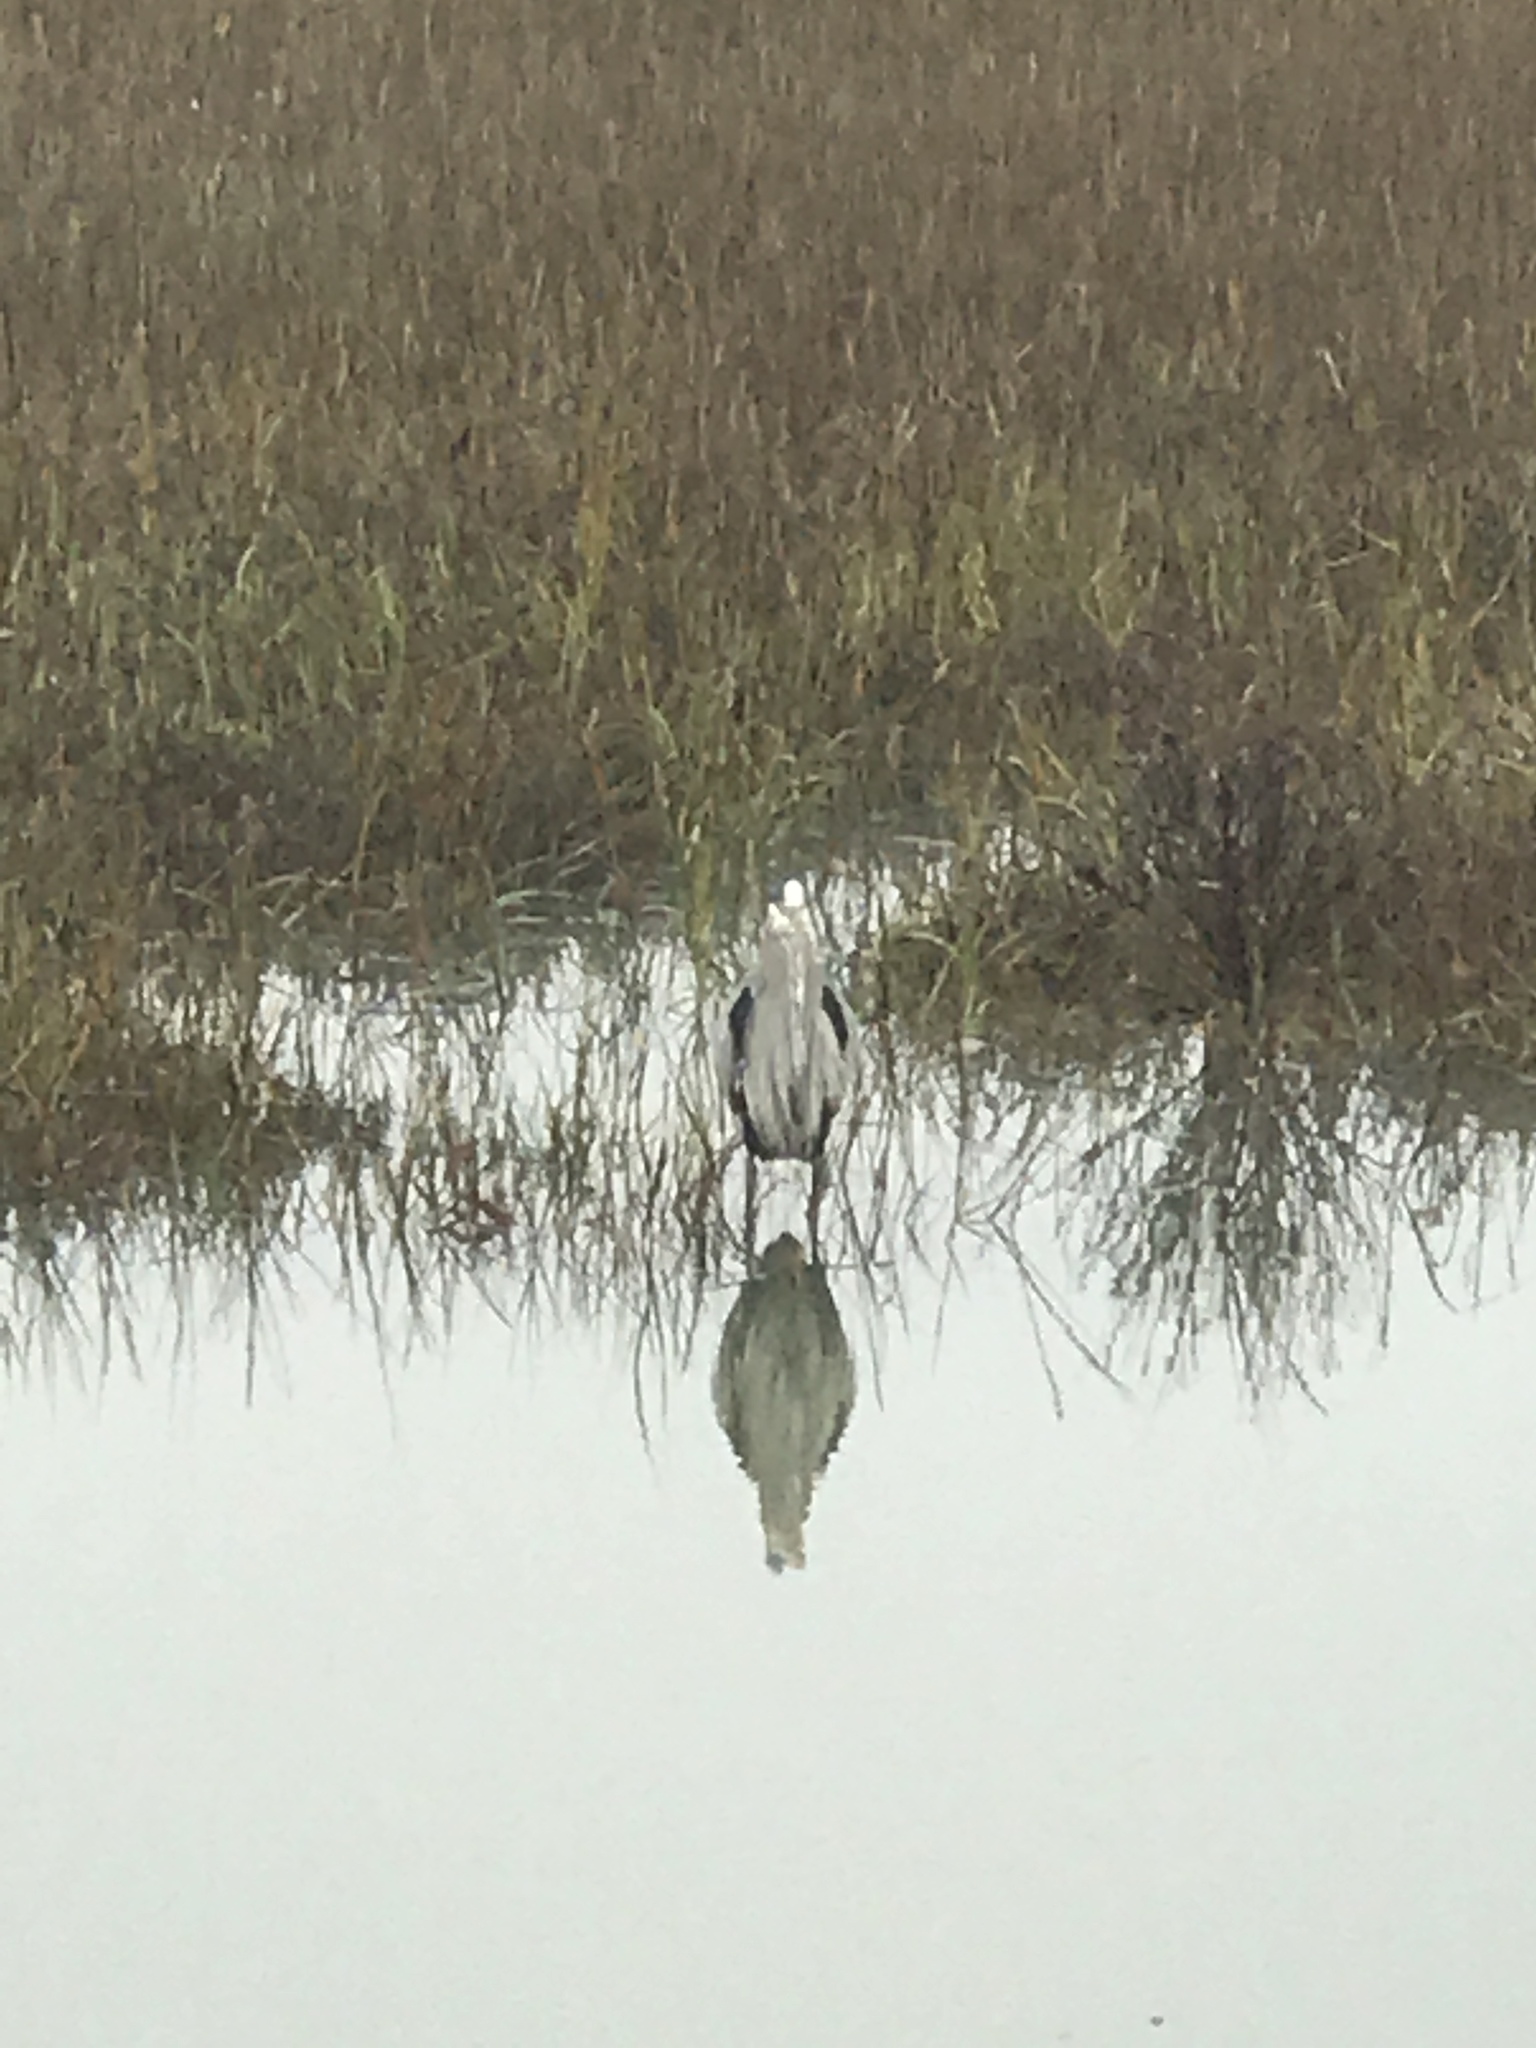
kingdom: Animalia
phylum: Chordata
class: Aves
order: Pelecaniformes
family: Ardeidae
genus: Ardea
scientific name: Ardea herodias
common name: Great blue heron
